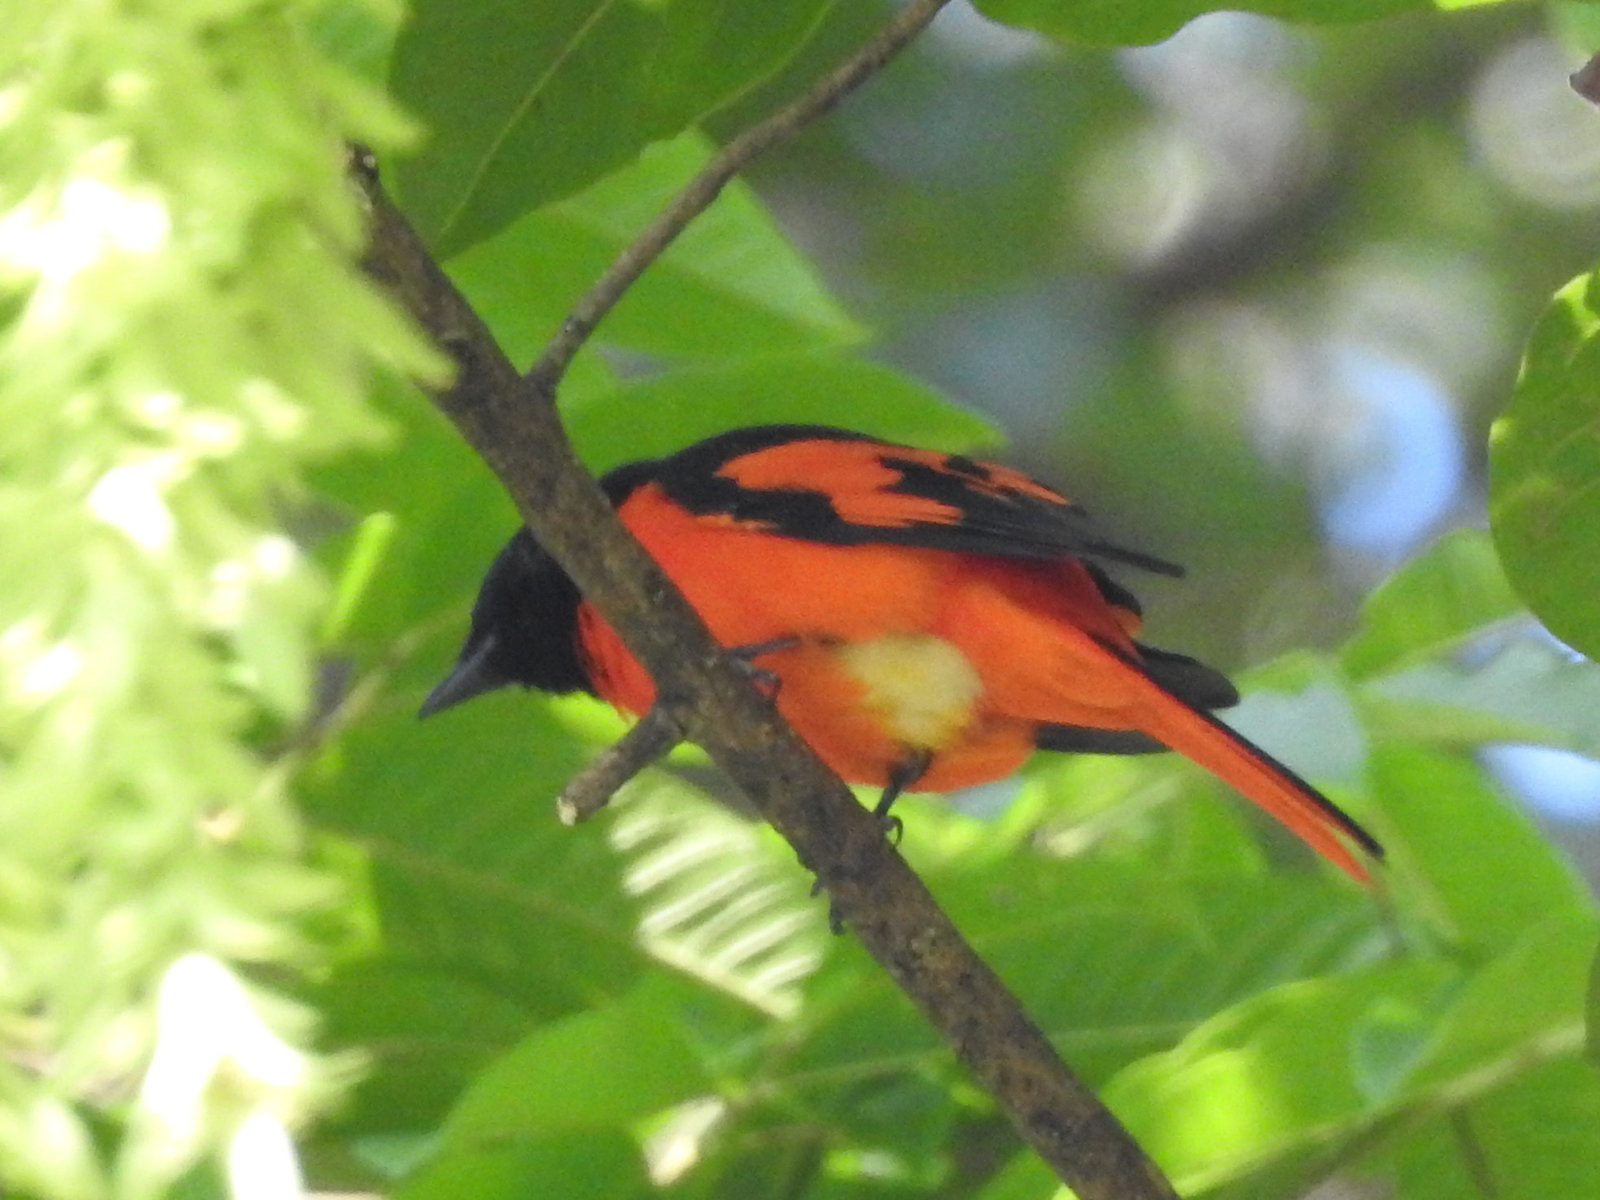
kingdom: Animalia
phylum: Chordata
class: Aves
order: Passeriformes
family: Campephagidae
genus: Pericrocotus
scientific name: Pericrocotus speciosus
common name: Scarlet minivet
